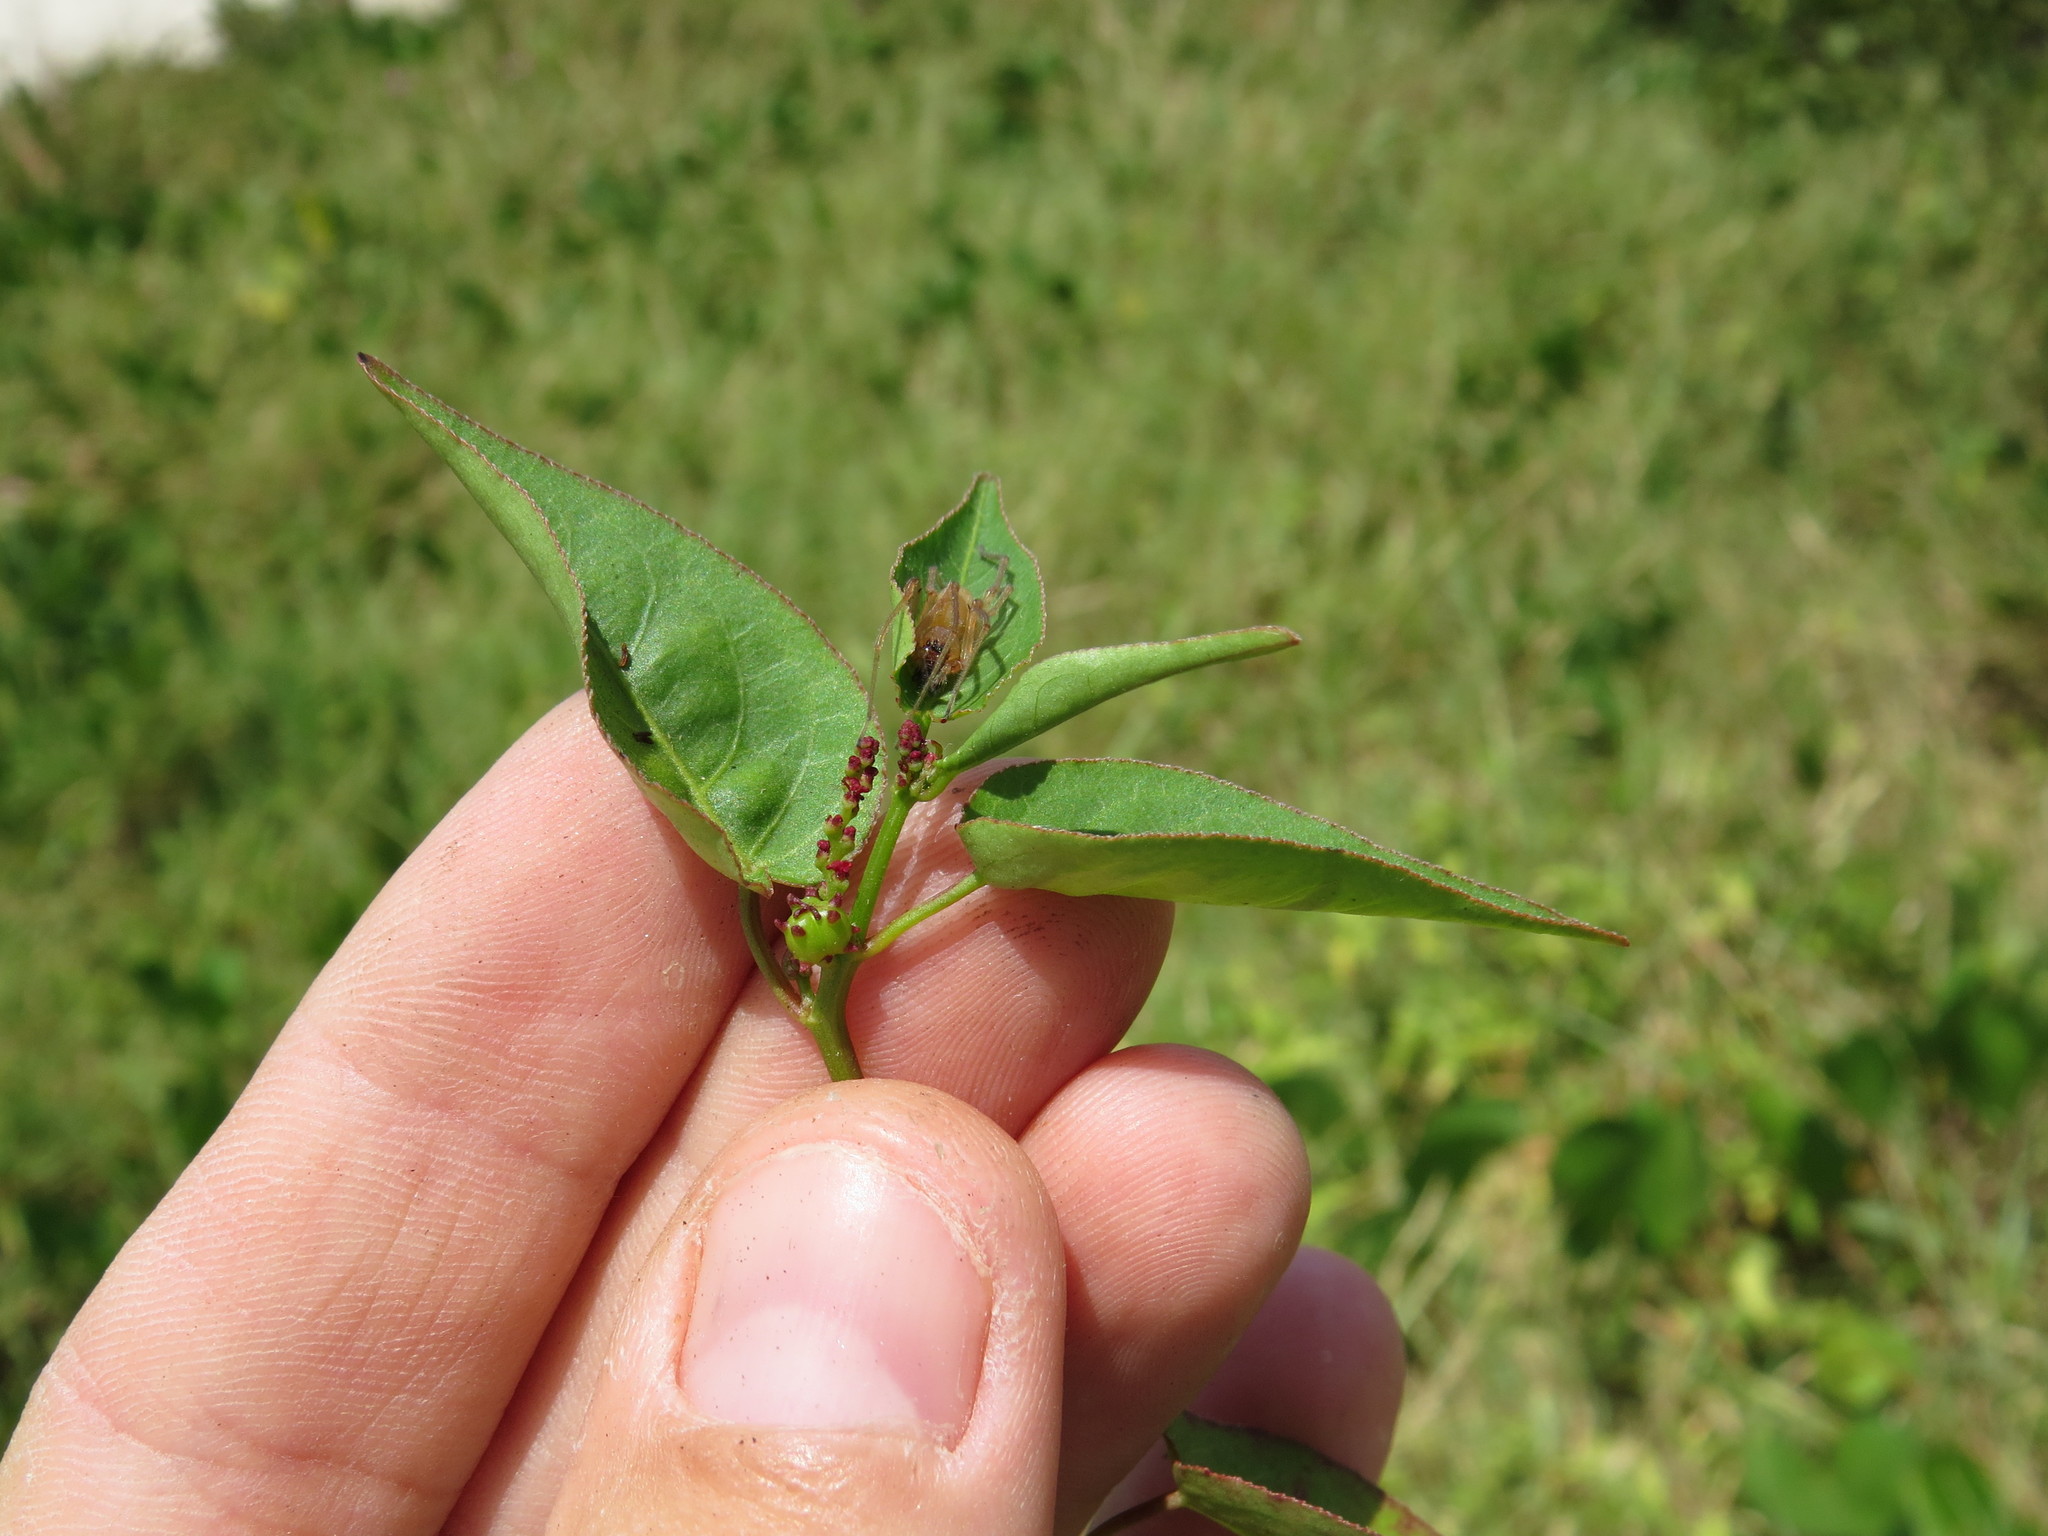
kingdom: Plantae
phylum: Tracheophyta
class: Magnoliopsida
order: Malpighiales
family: Euphorbiaceae
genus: Microstachys
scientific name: Microstachys corniculata
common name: Hato tejas
